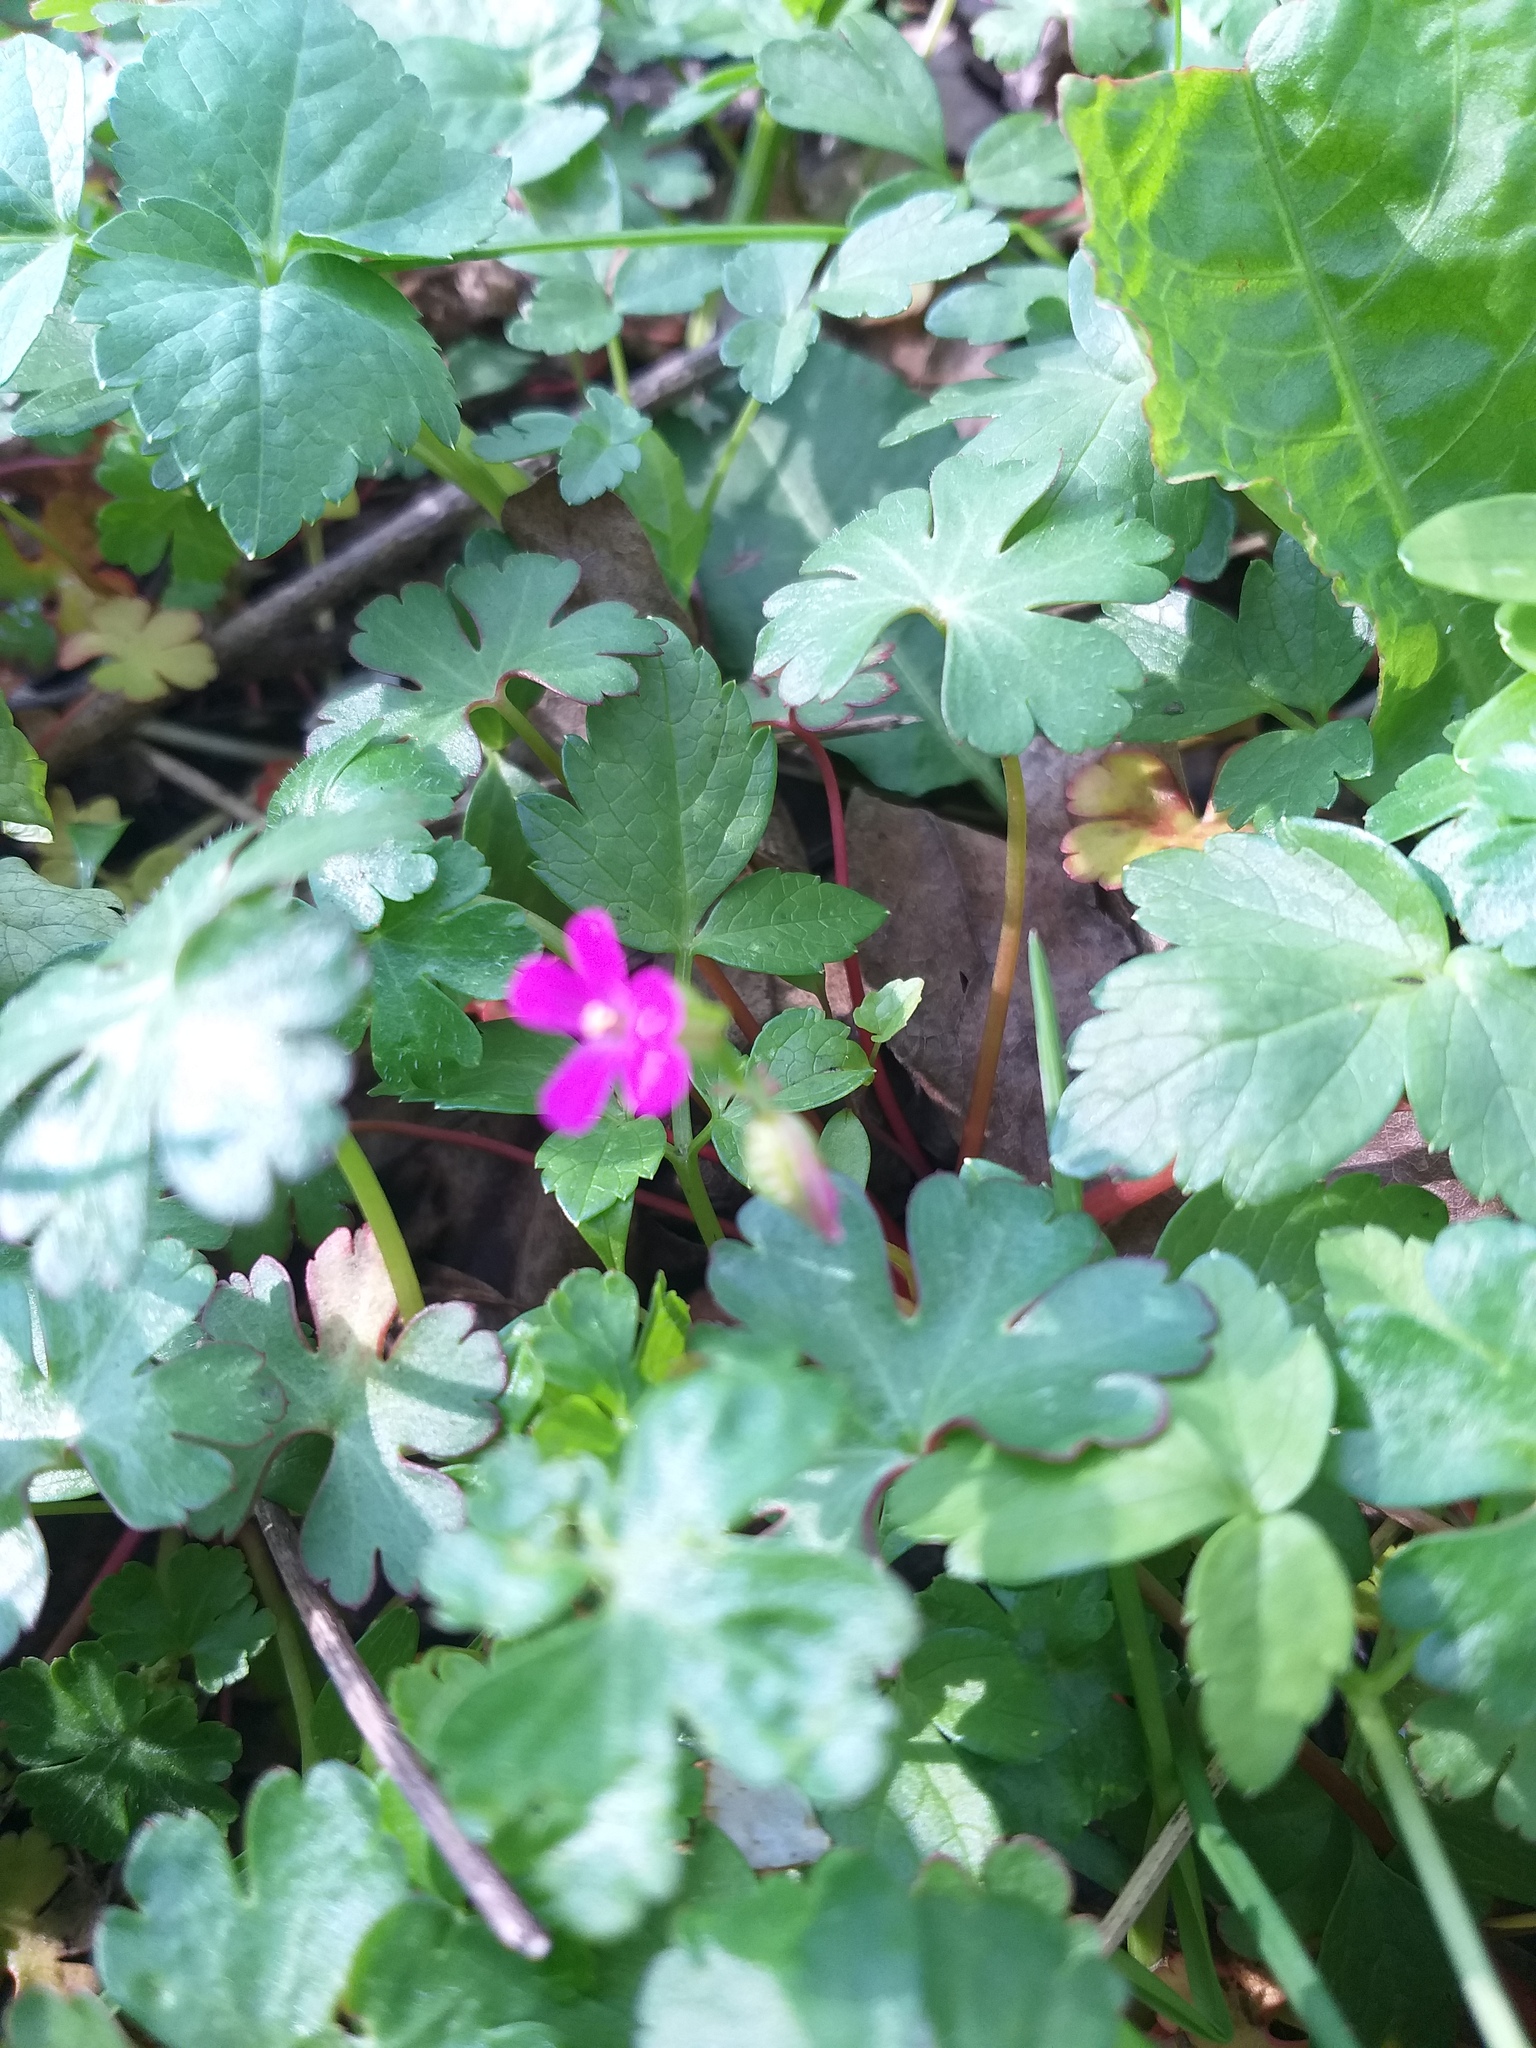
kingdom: Plantae
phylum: Tracheophyta
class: Magnoliopsida
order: Geraniales
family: Geraniaceae
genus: Geranium
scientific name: Geranium lucidum
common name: Shining crane's-bill
